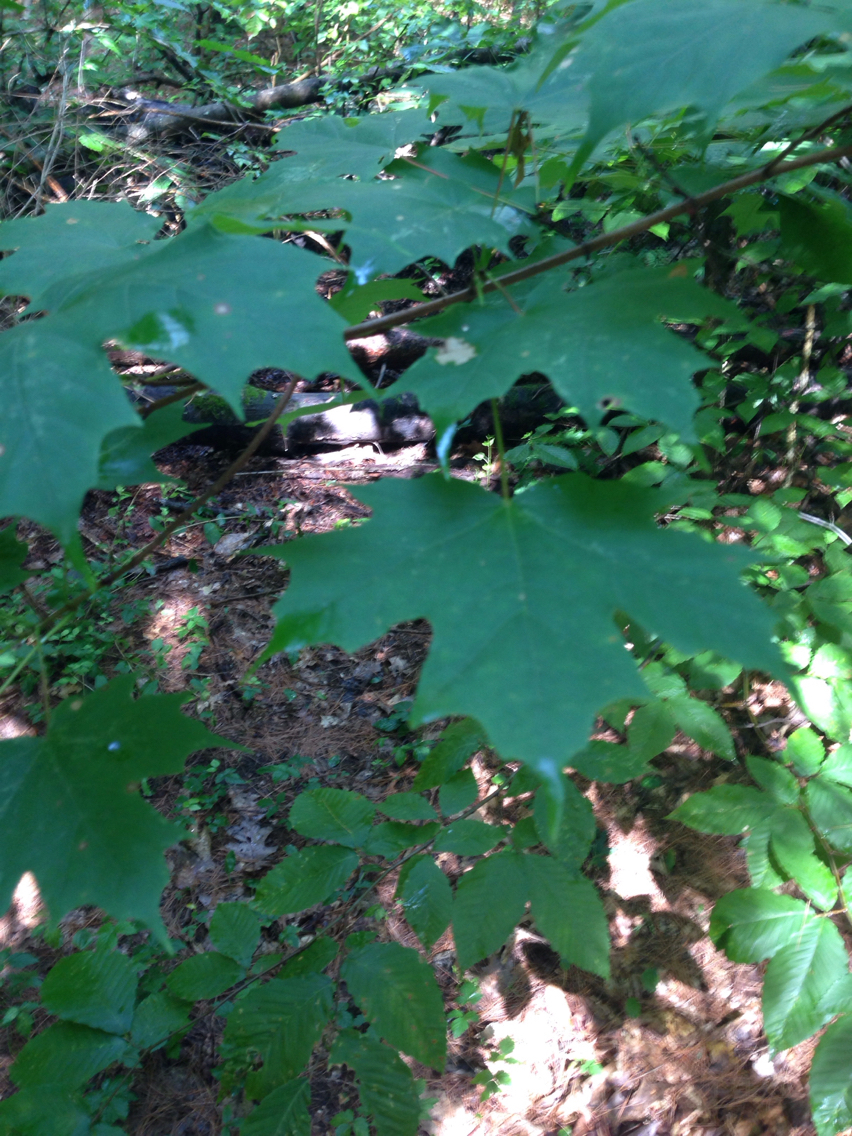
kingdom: Plantae
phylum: Tracheophyta
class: Magnoliopsida
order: Sapindales
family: Sapindaceae
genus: Acer
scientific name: Acer saccharum
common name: Sugar maple
